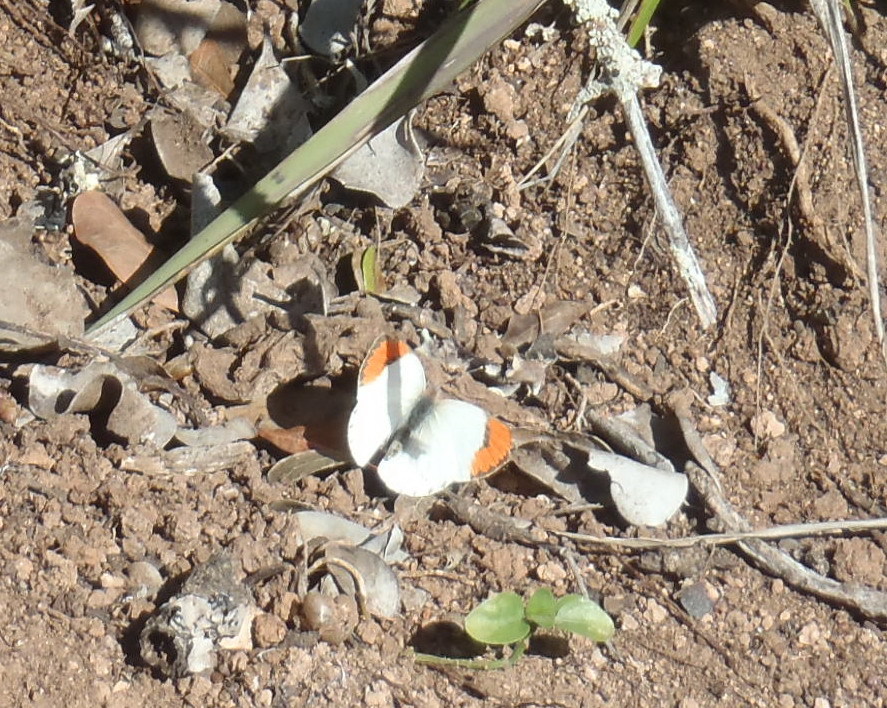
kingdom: Animalia
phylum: Arthropoda
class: Insecta
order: Lepidoptera
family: Pieridae
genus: Colotis
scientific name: Colotis euippe
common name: Round-winged orange tip
